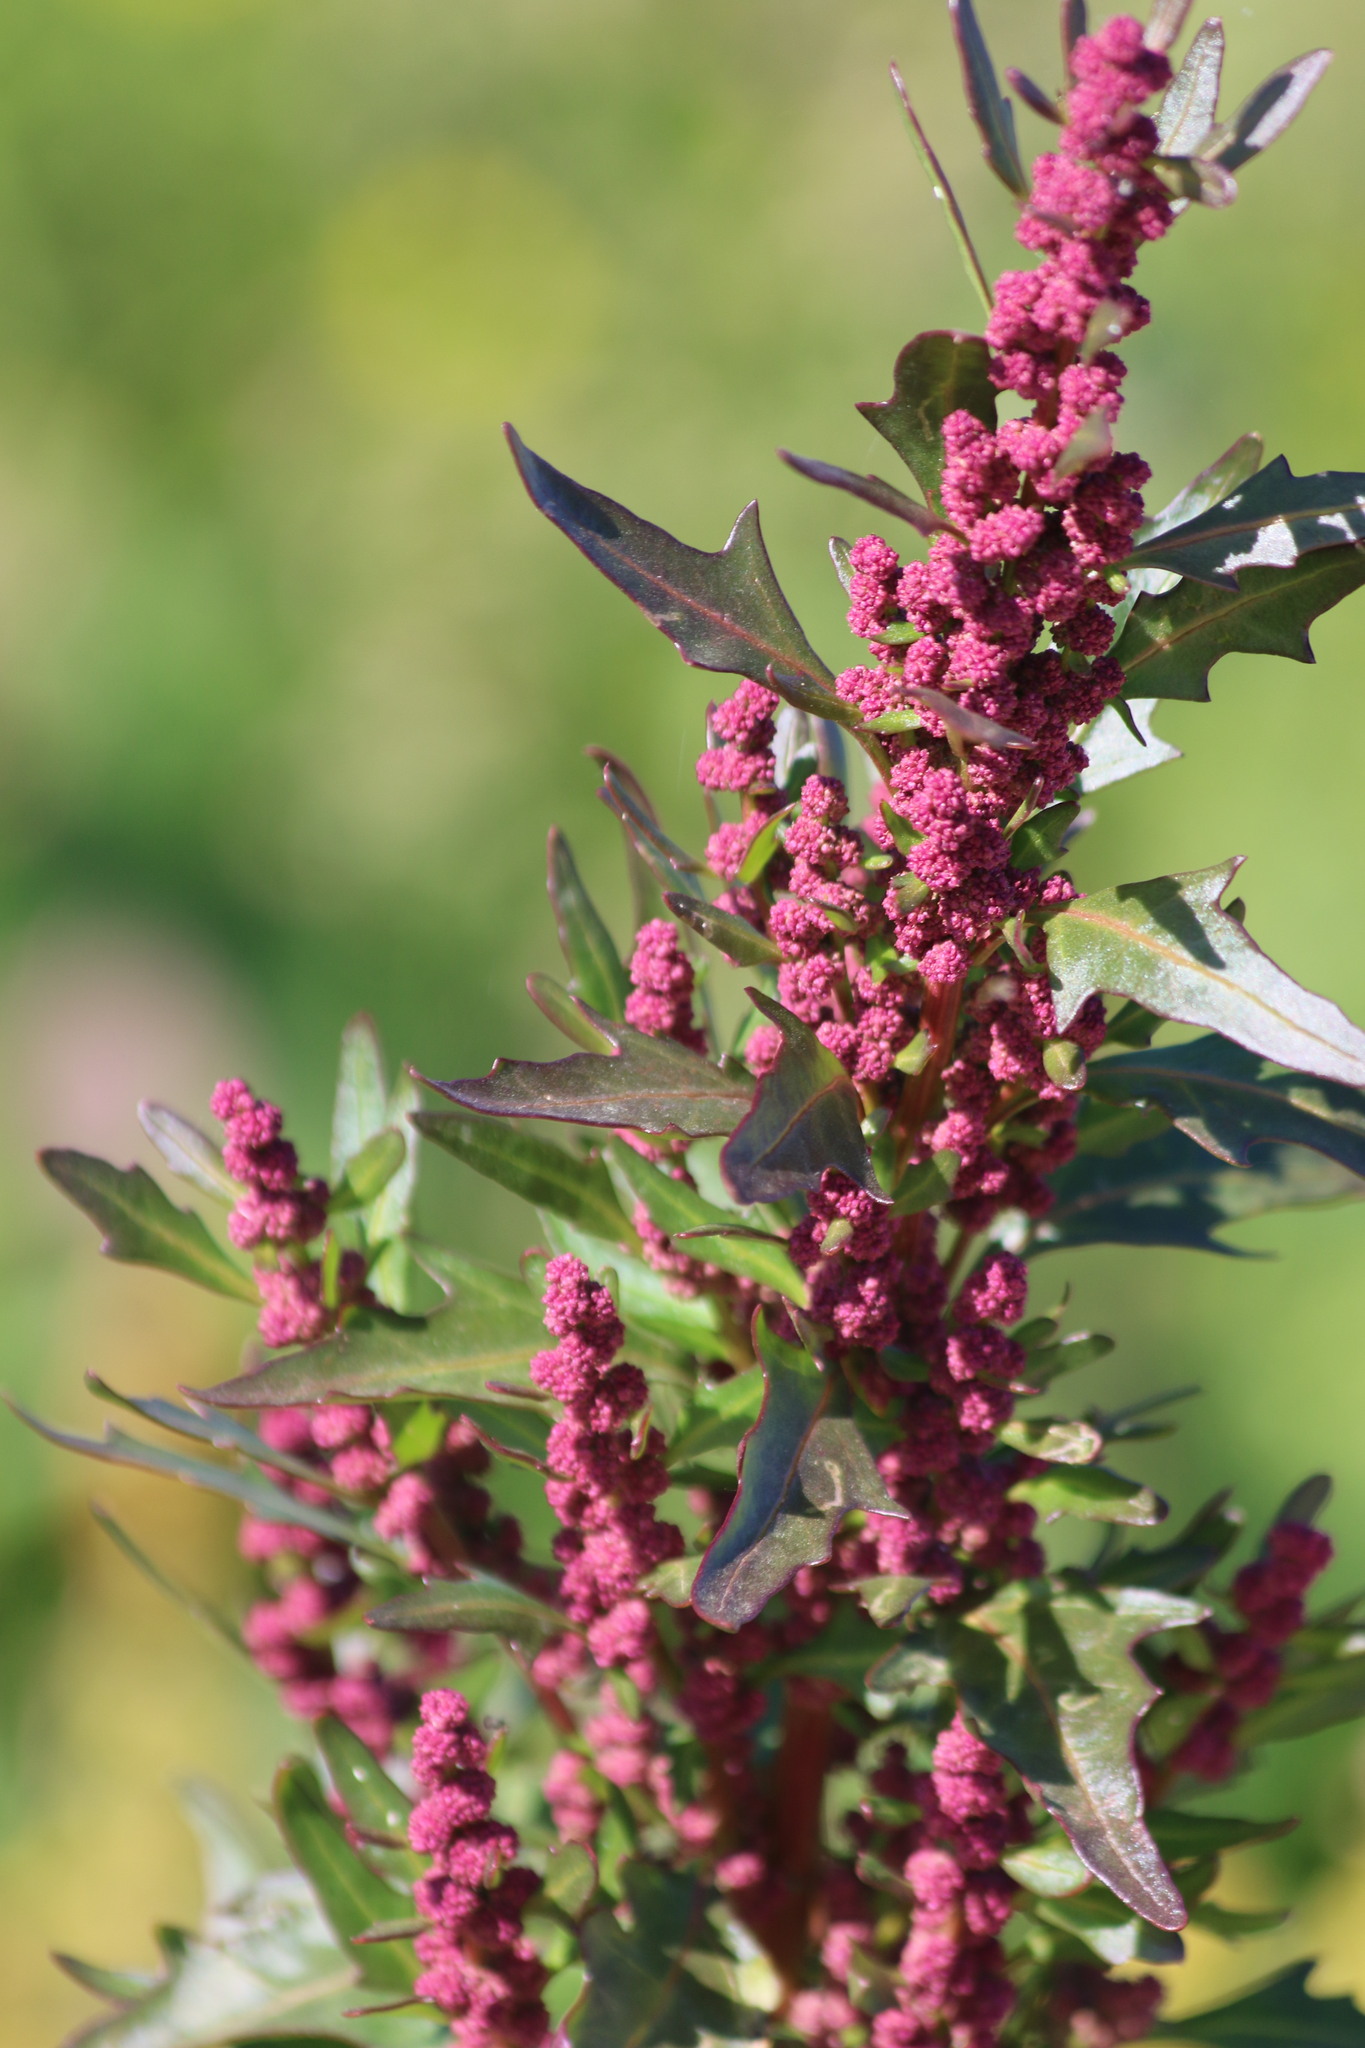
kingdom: Plantae
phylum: Tracheophyta
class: Magnoliopsida
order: Caryophyllales
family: Amaranthaceae
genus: Oxybasis
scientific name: Oxybasis rubra
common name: Red goosefoot
